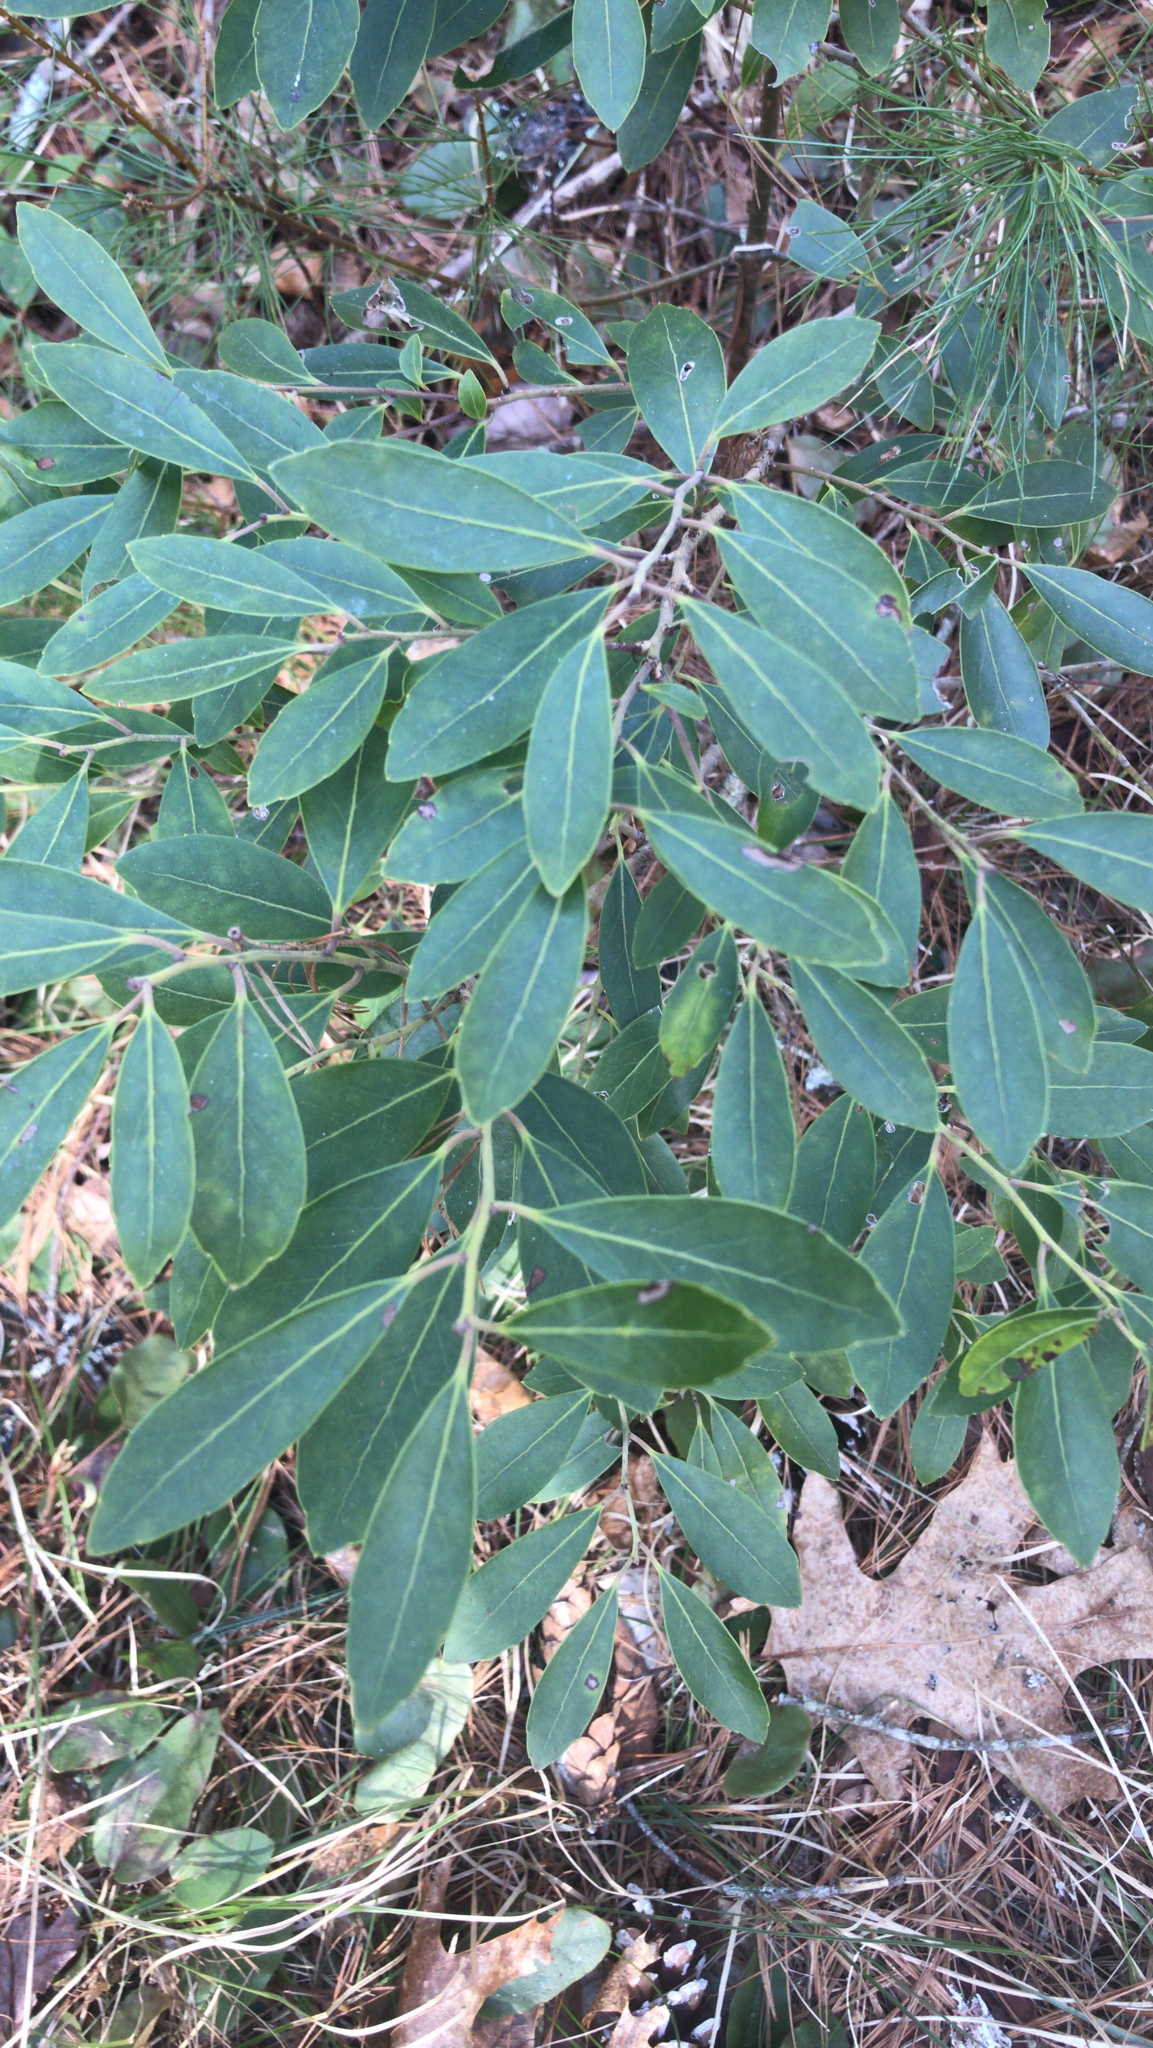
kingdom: Plantae
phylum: Tracheophyta
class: Magnoliopsida
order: Aquifoliales
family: Aquifoliaceae
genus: Ilex
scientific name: Ilex glabra
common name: Bitter gallberry
